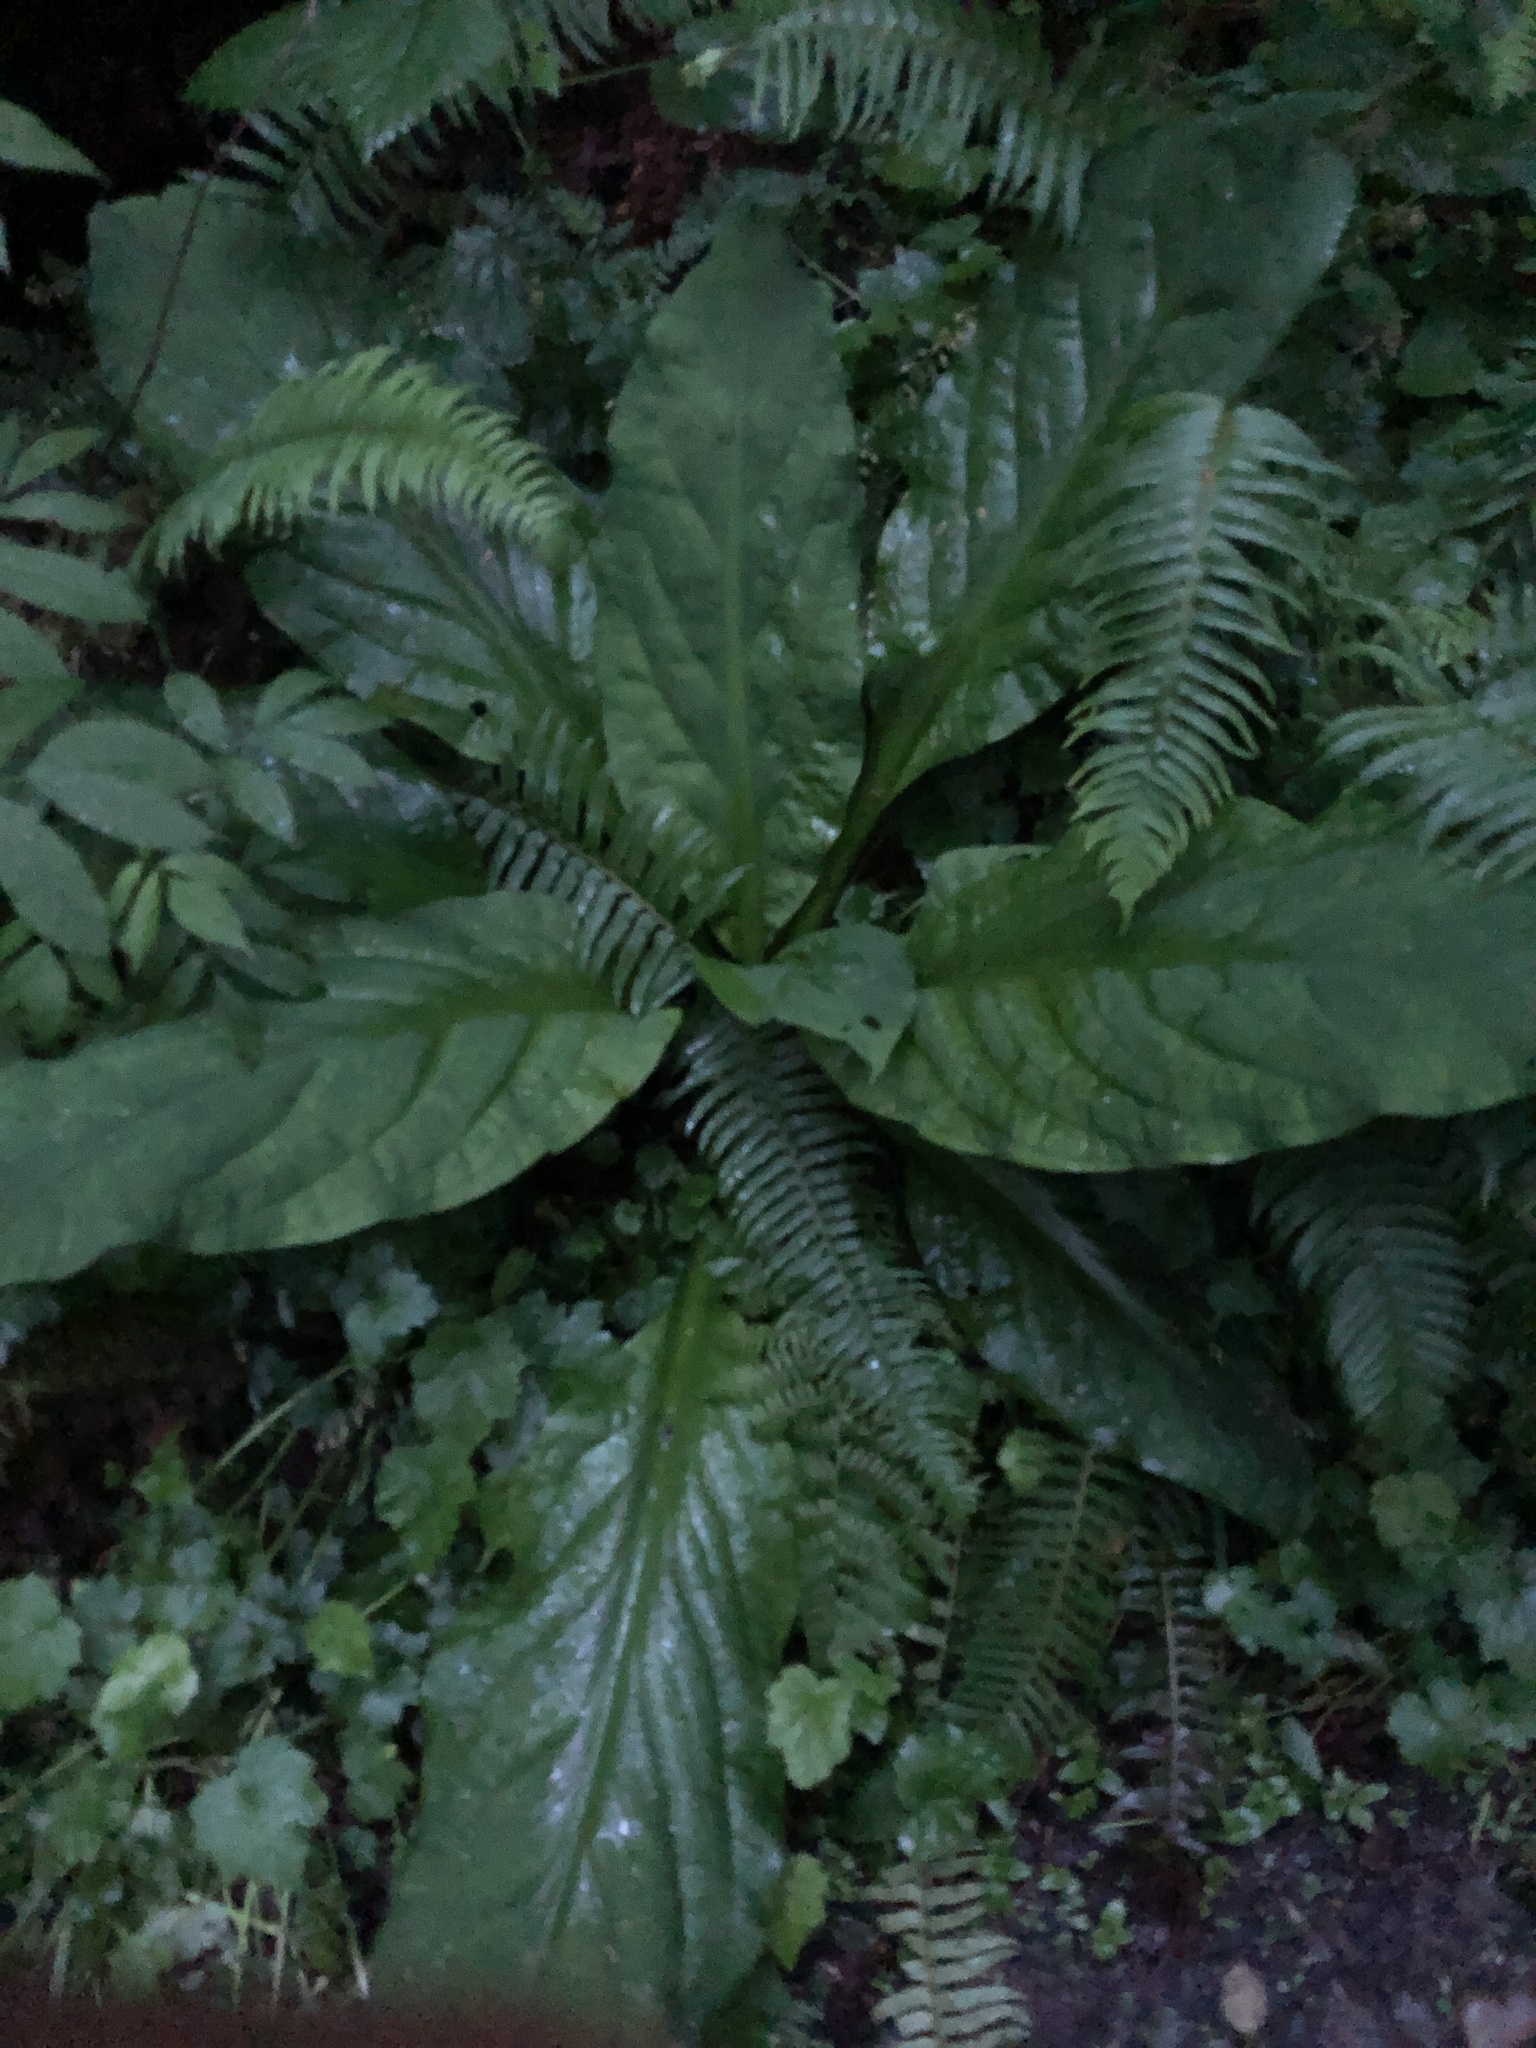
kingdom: Plantae
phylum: Tracheophyta
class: Liliopsida
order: Alismatales
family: Araceae
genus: Lysichiton
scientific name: Lysichiton americanus
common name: American skunk cabbage
